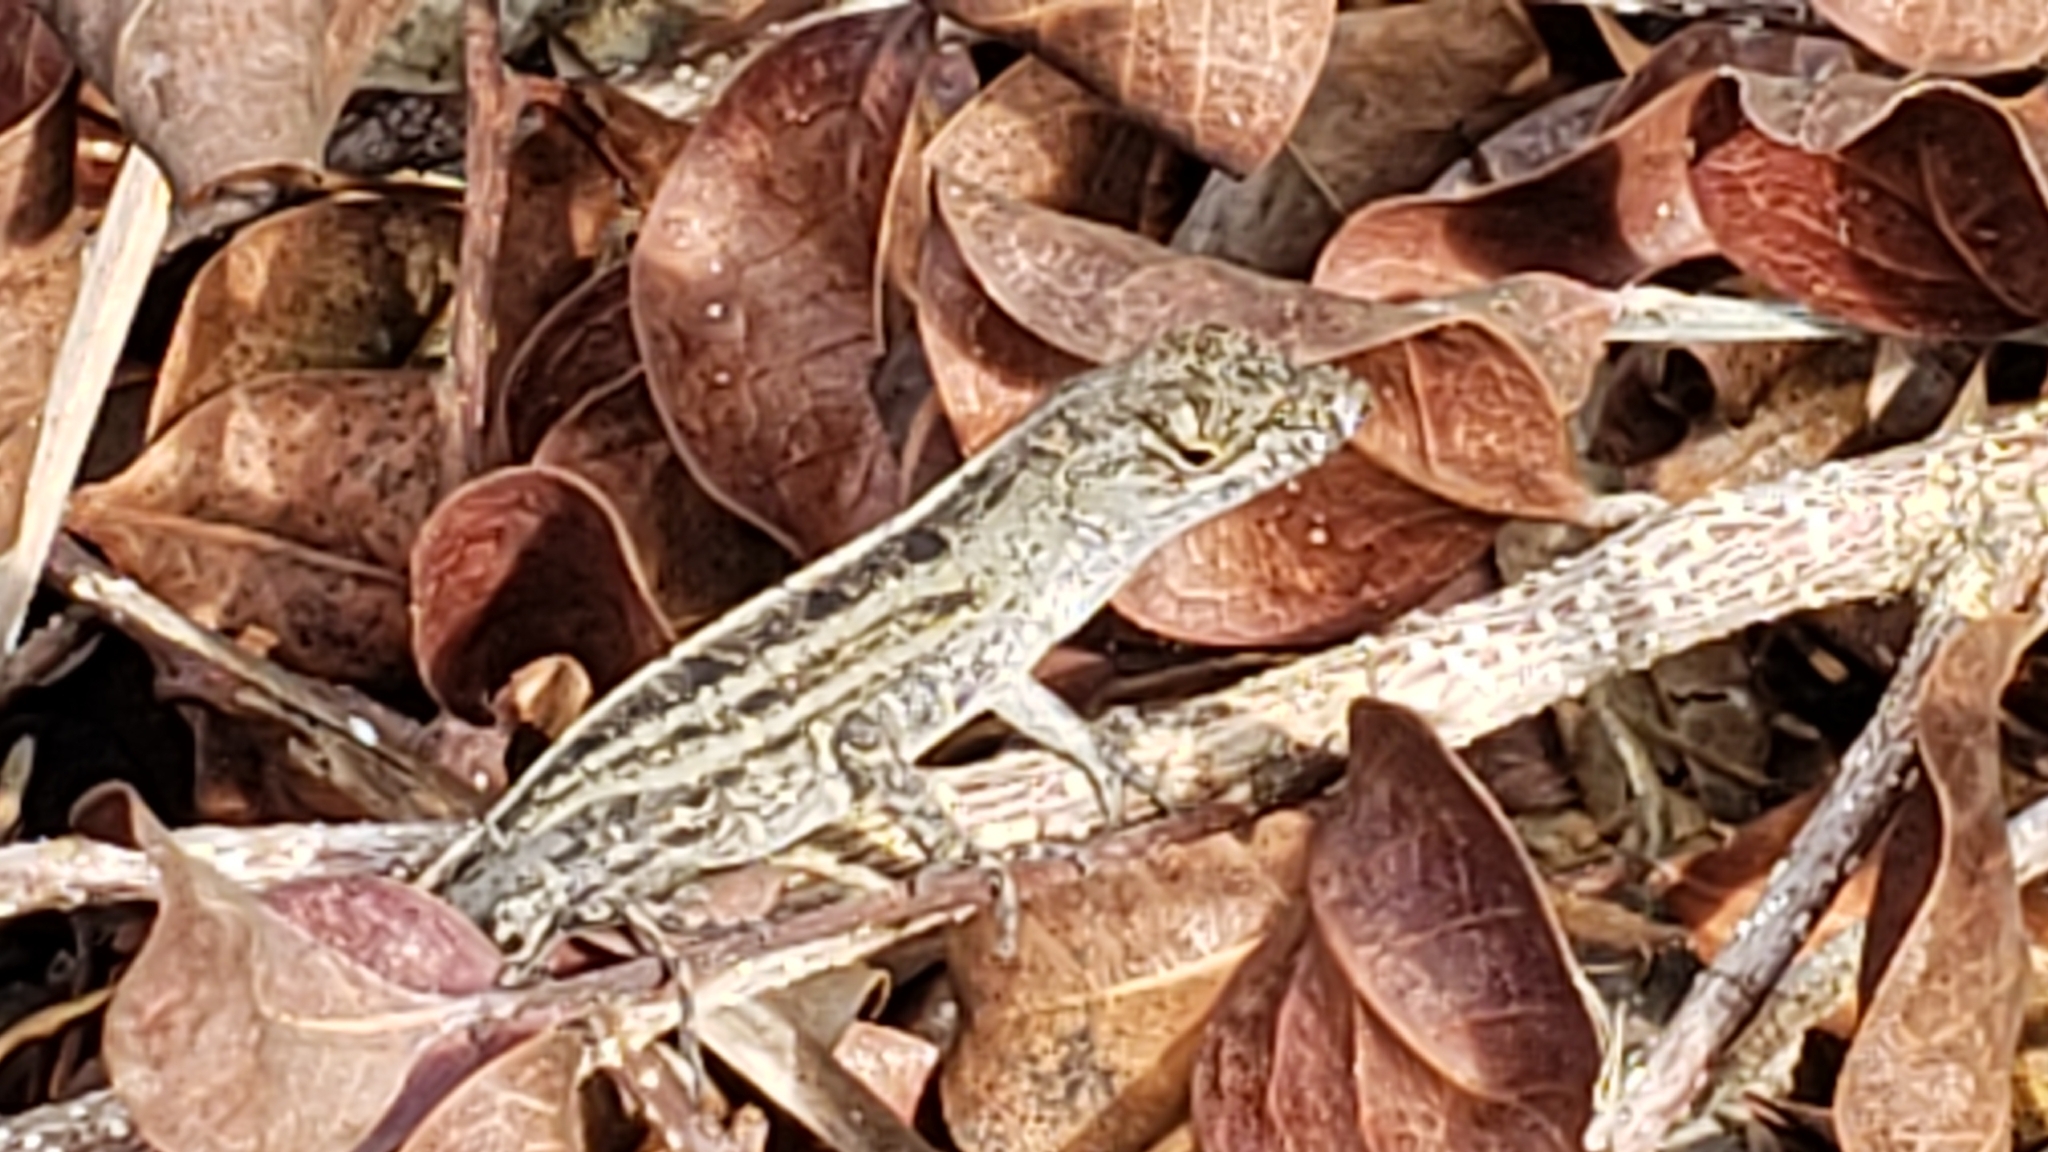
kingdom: Animalia
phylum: Chordata
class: Squamata
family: Dactyloidae
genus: Anolis
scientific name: Anolis sagrei
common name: Brown anole
